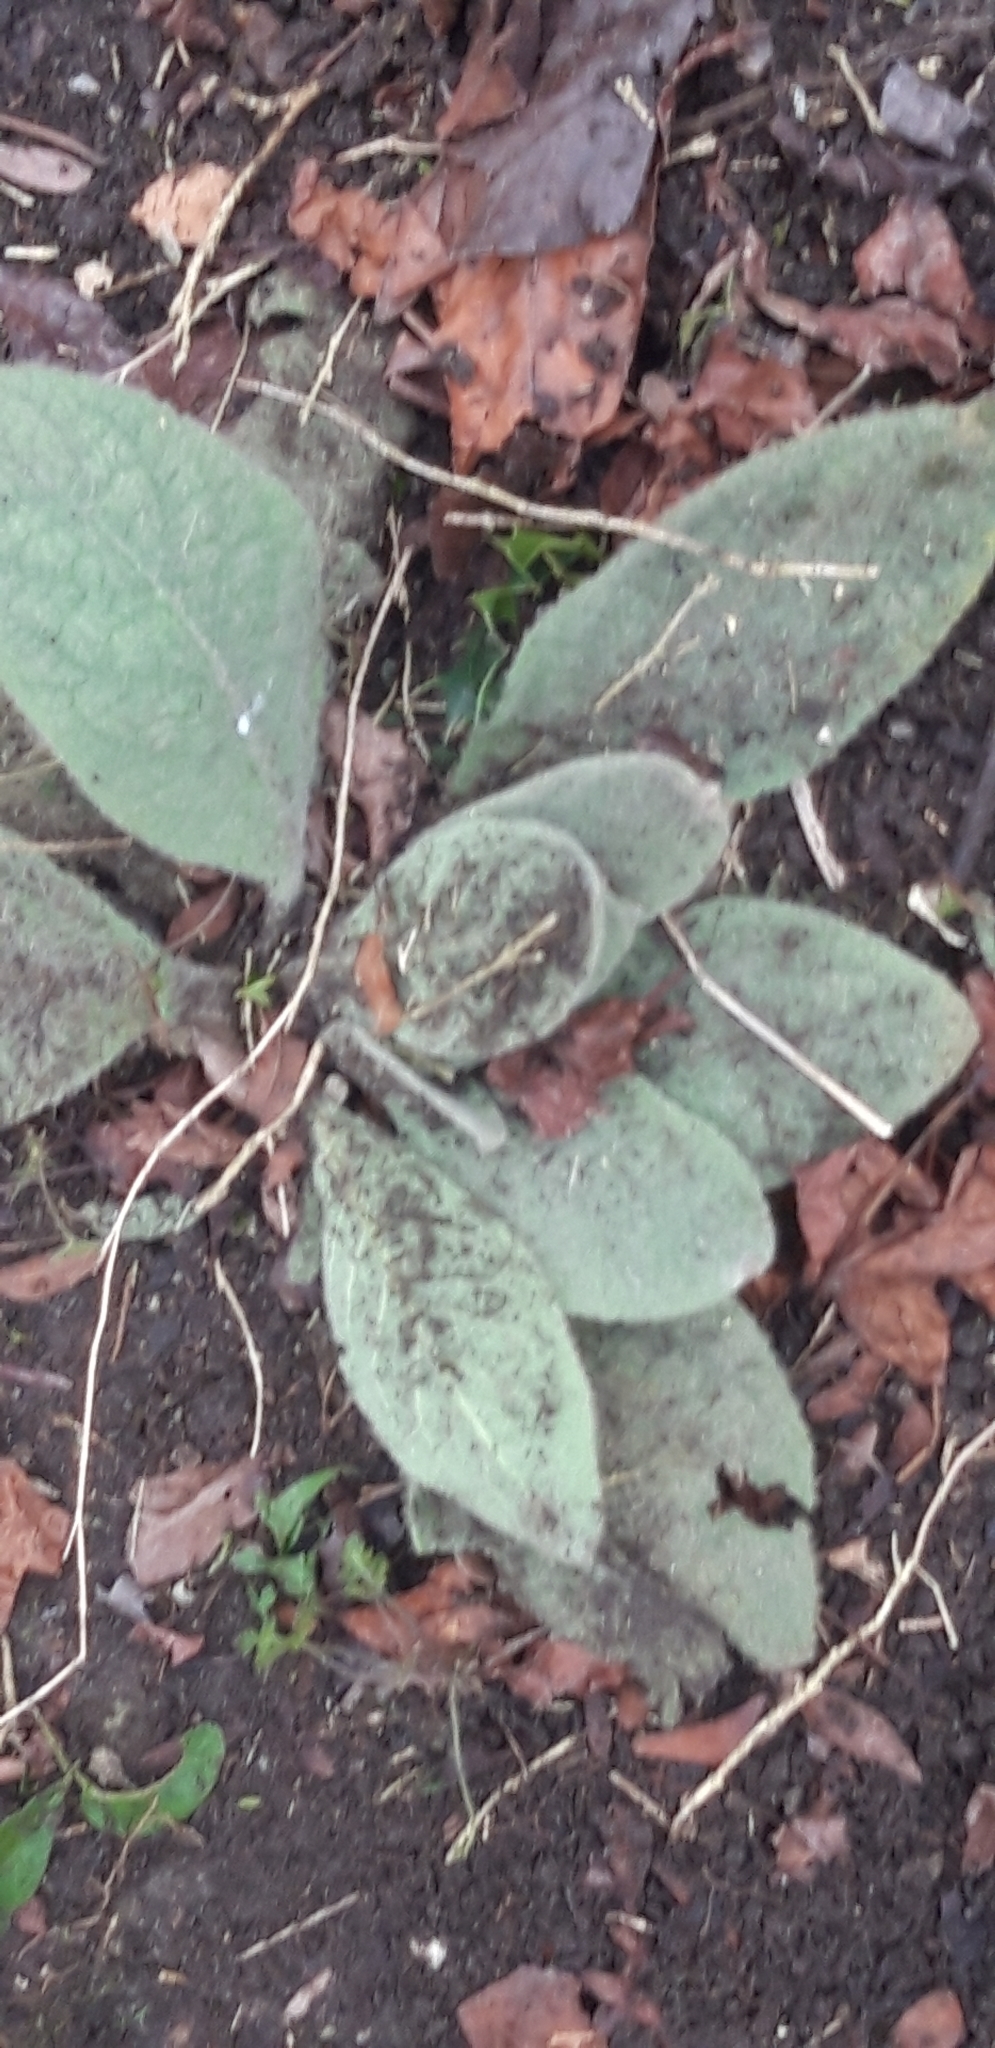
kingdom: Plantae
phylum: Tracheophyta
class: Magnoliopsida
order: Lamiales
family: Scrophulariaceae
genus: Verbascum
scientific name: Verbascum thapsus
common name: Common mullein
